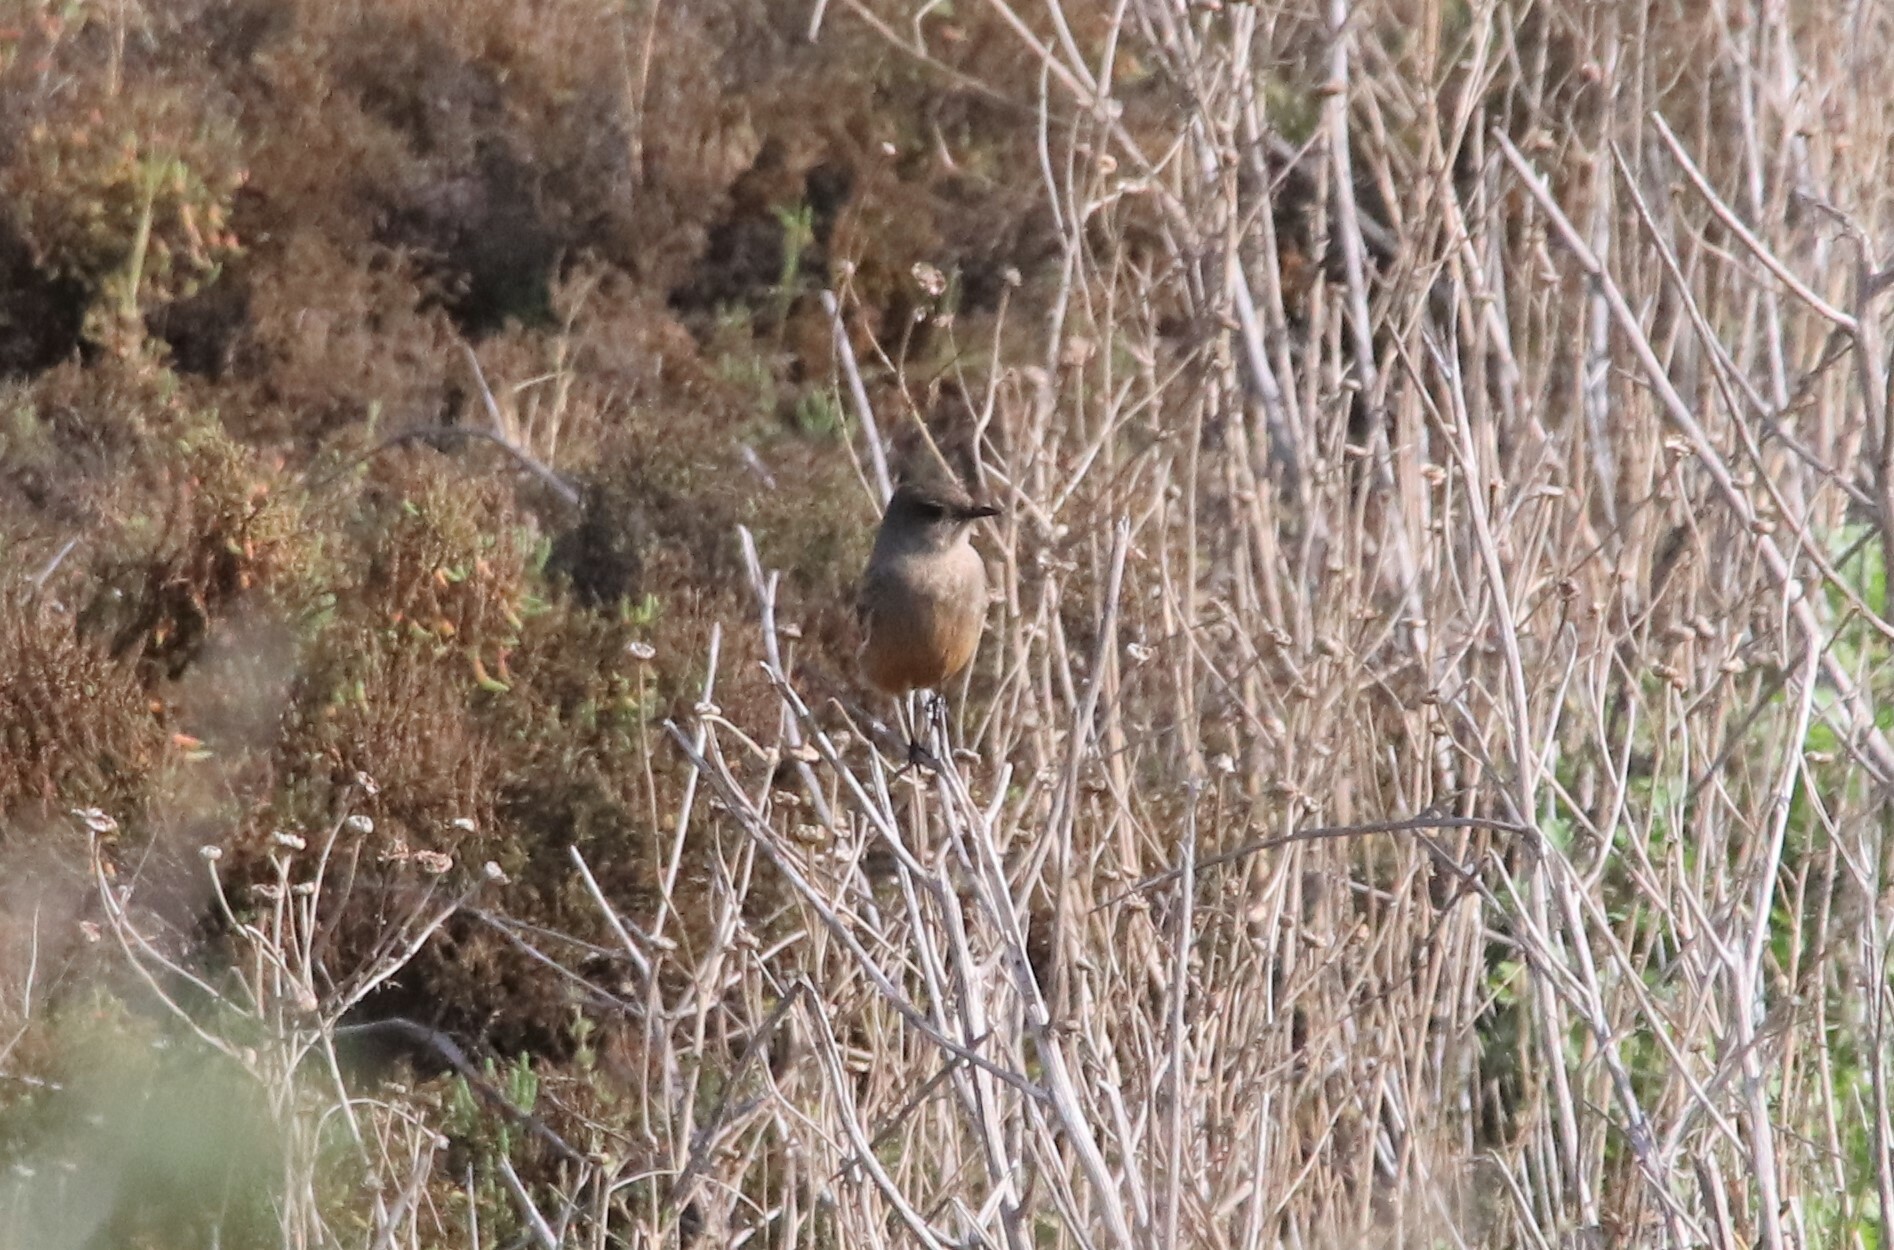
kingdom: Animalia
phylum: Chordata
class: Aves
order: Passeriformes
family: Tyrannidae
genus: Sayornis
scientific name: Sayornis saya
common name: Say's phoebe
